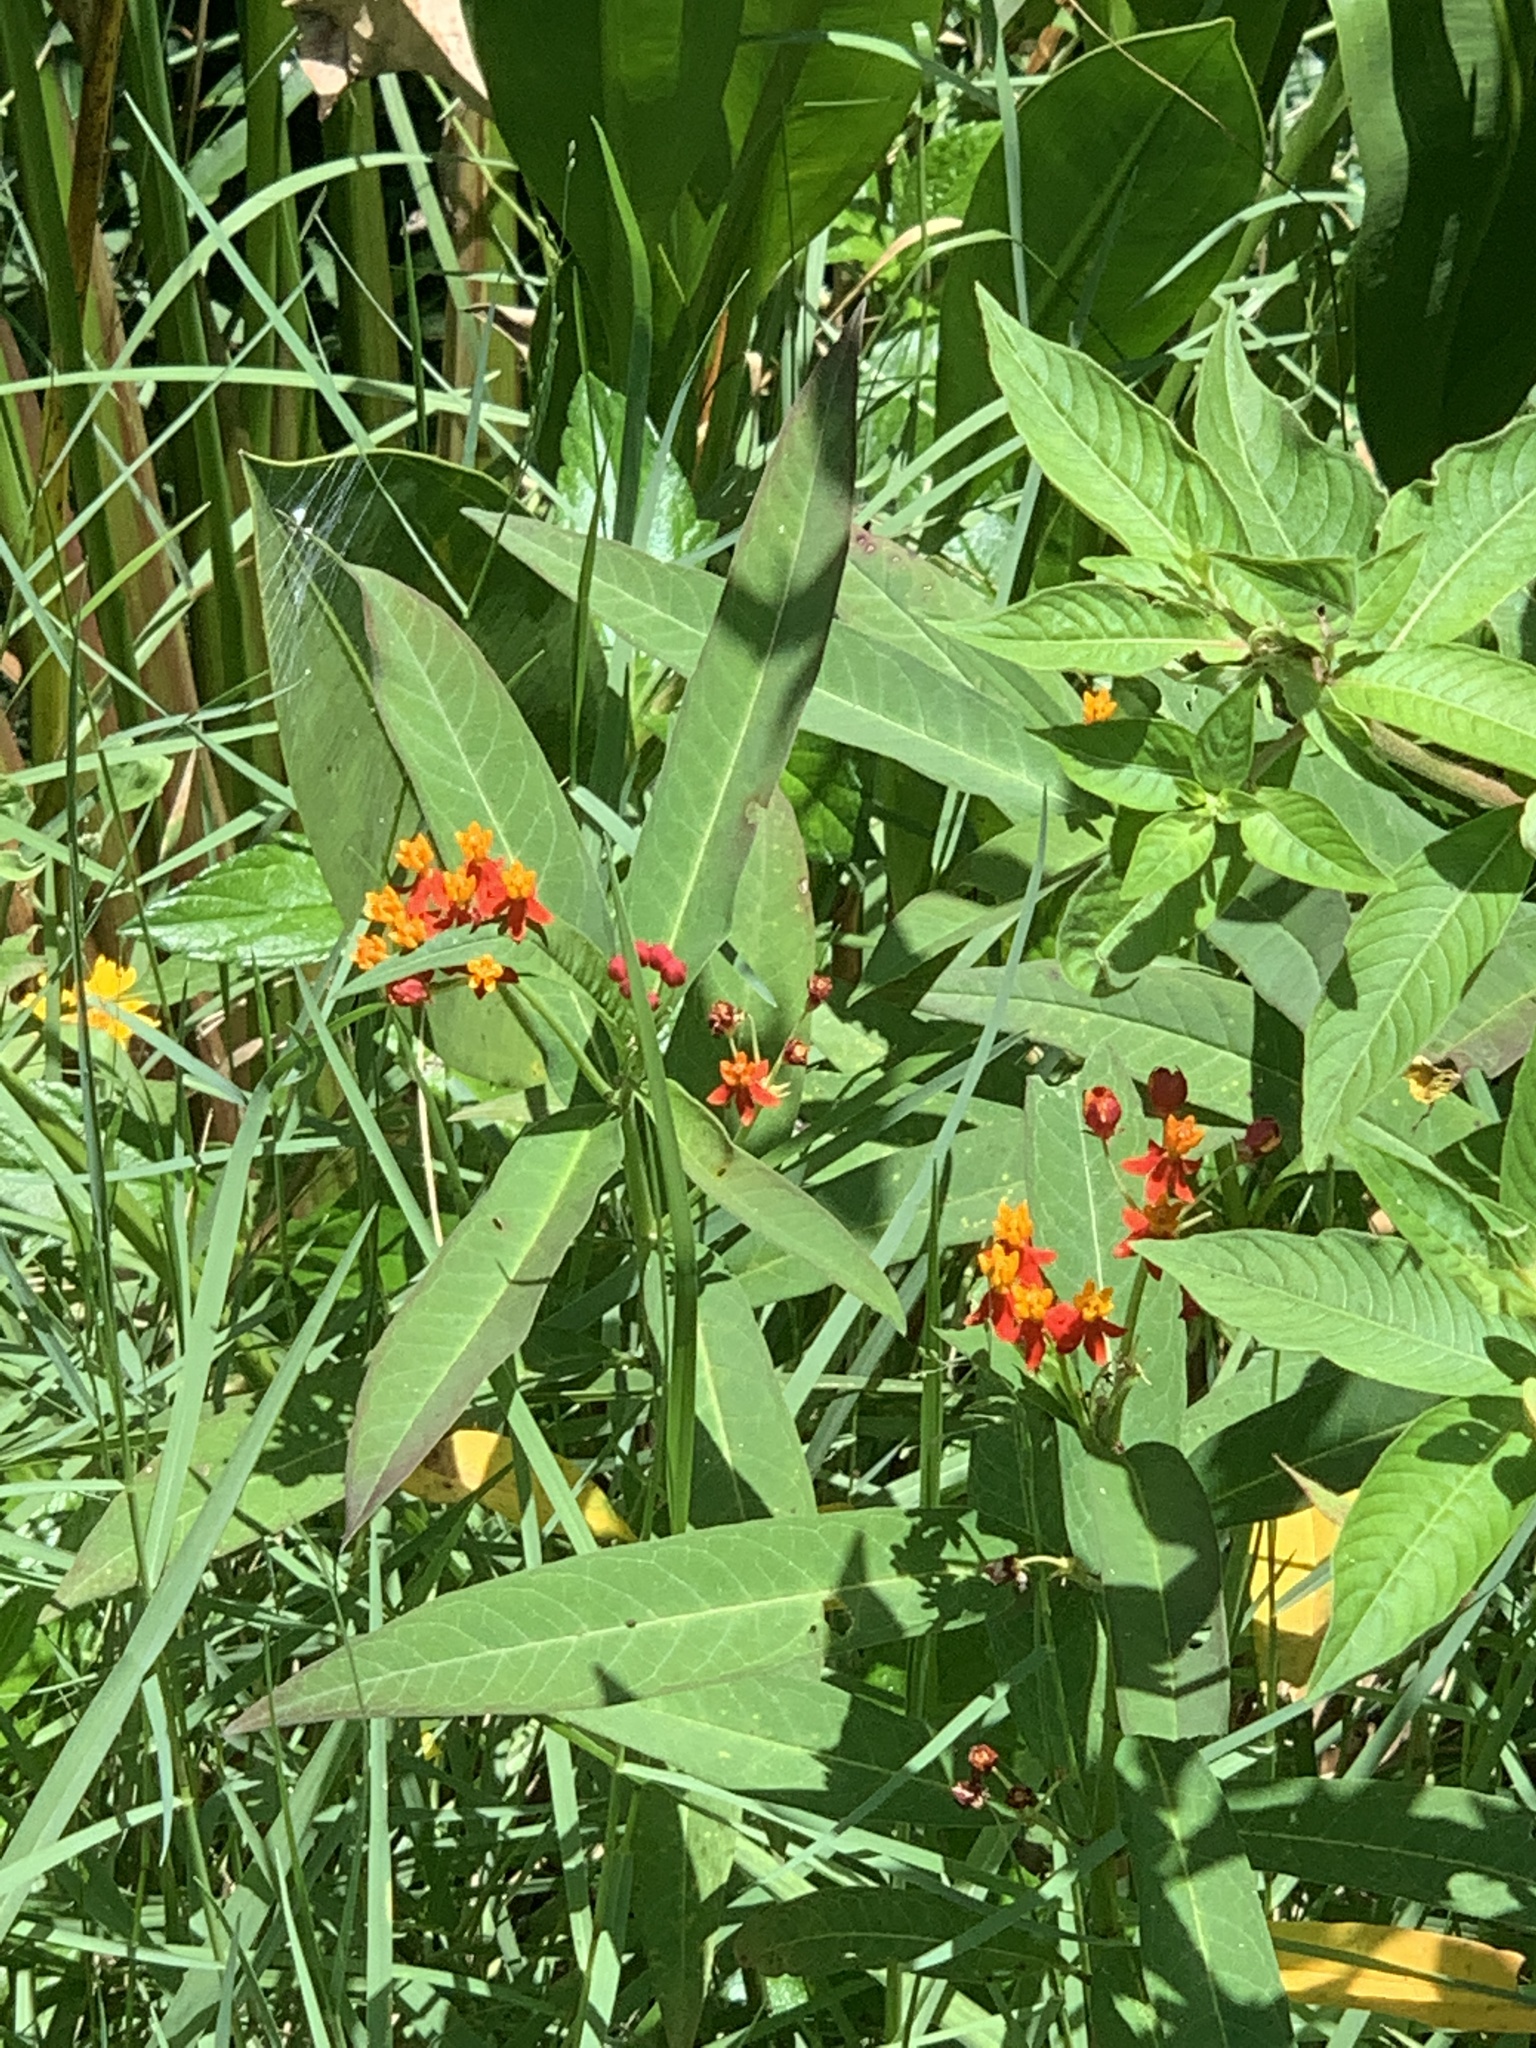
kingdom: Plantae
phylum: Tracheophyta
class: Magnoliopsida
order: Gentianales
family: Apocynaceae
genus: Asclepias
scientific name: Asclepias curassavica
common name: Bloodflower
